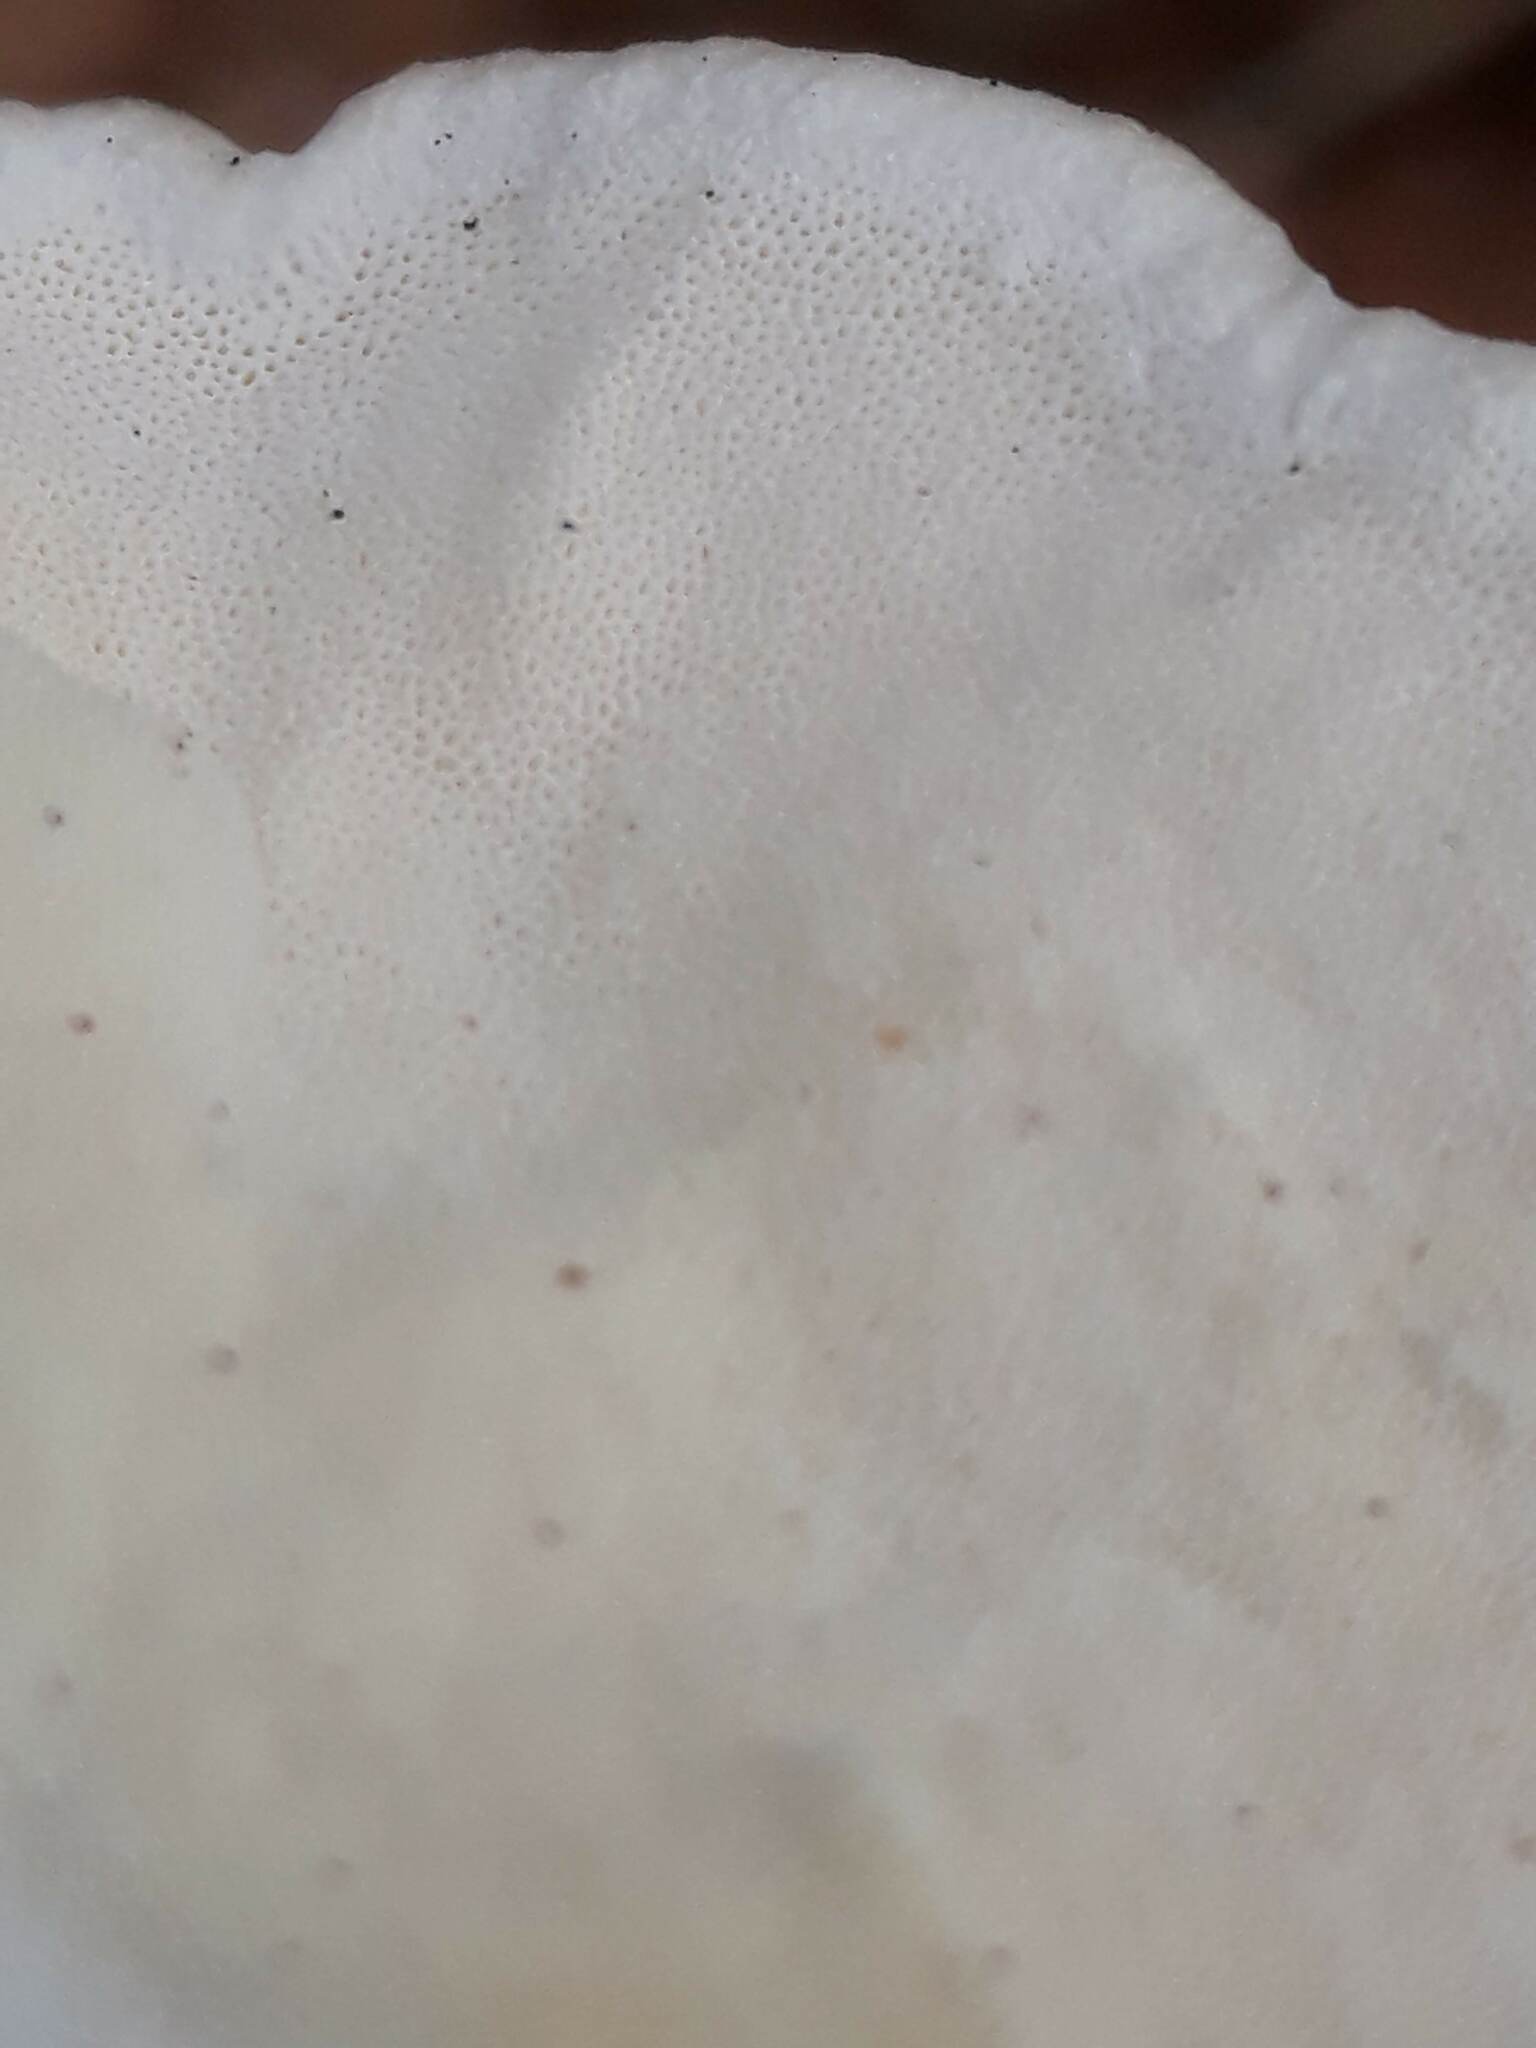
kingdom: Fungi
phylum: Basidiomycota
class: Agaricomycetes
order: Polyporales
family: Polyporaceae
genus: Trametes
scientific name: Trametes hirsuta
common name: Hairy bracket
